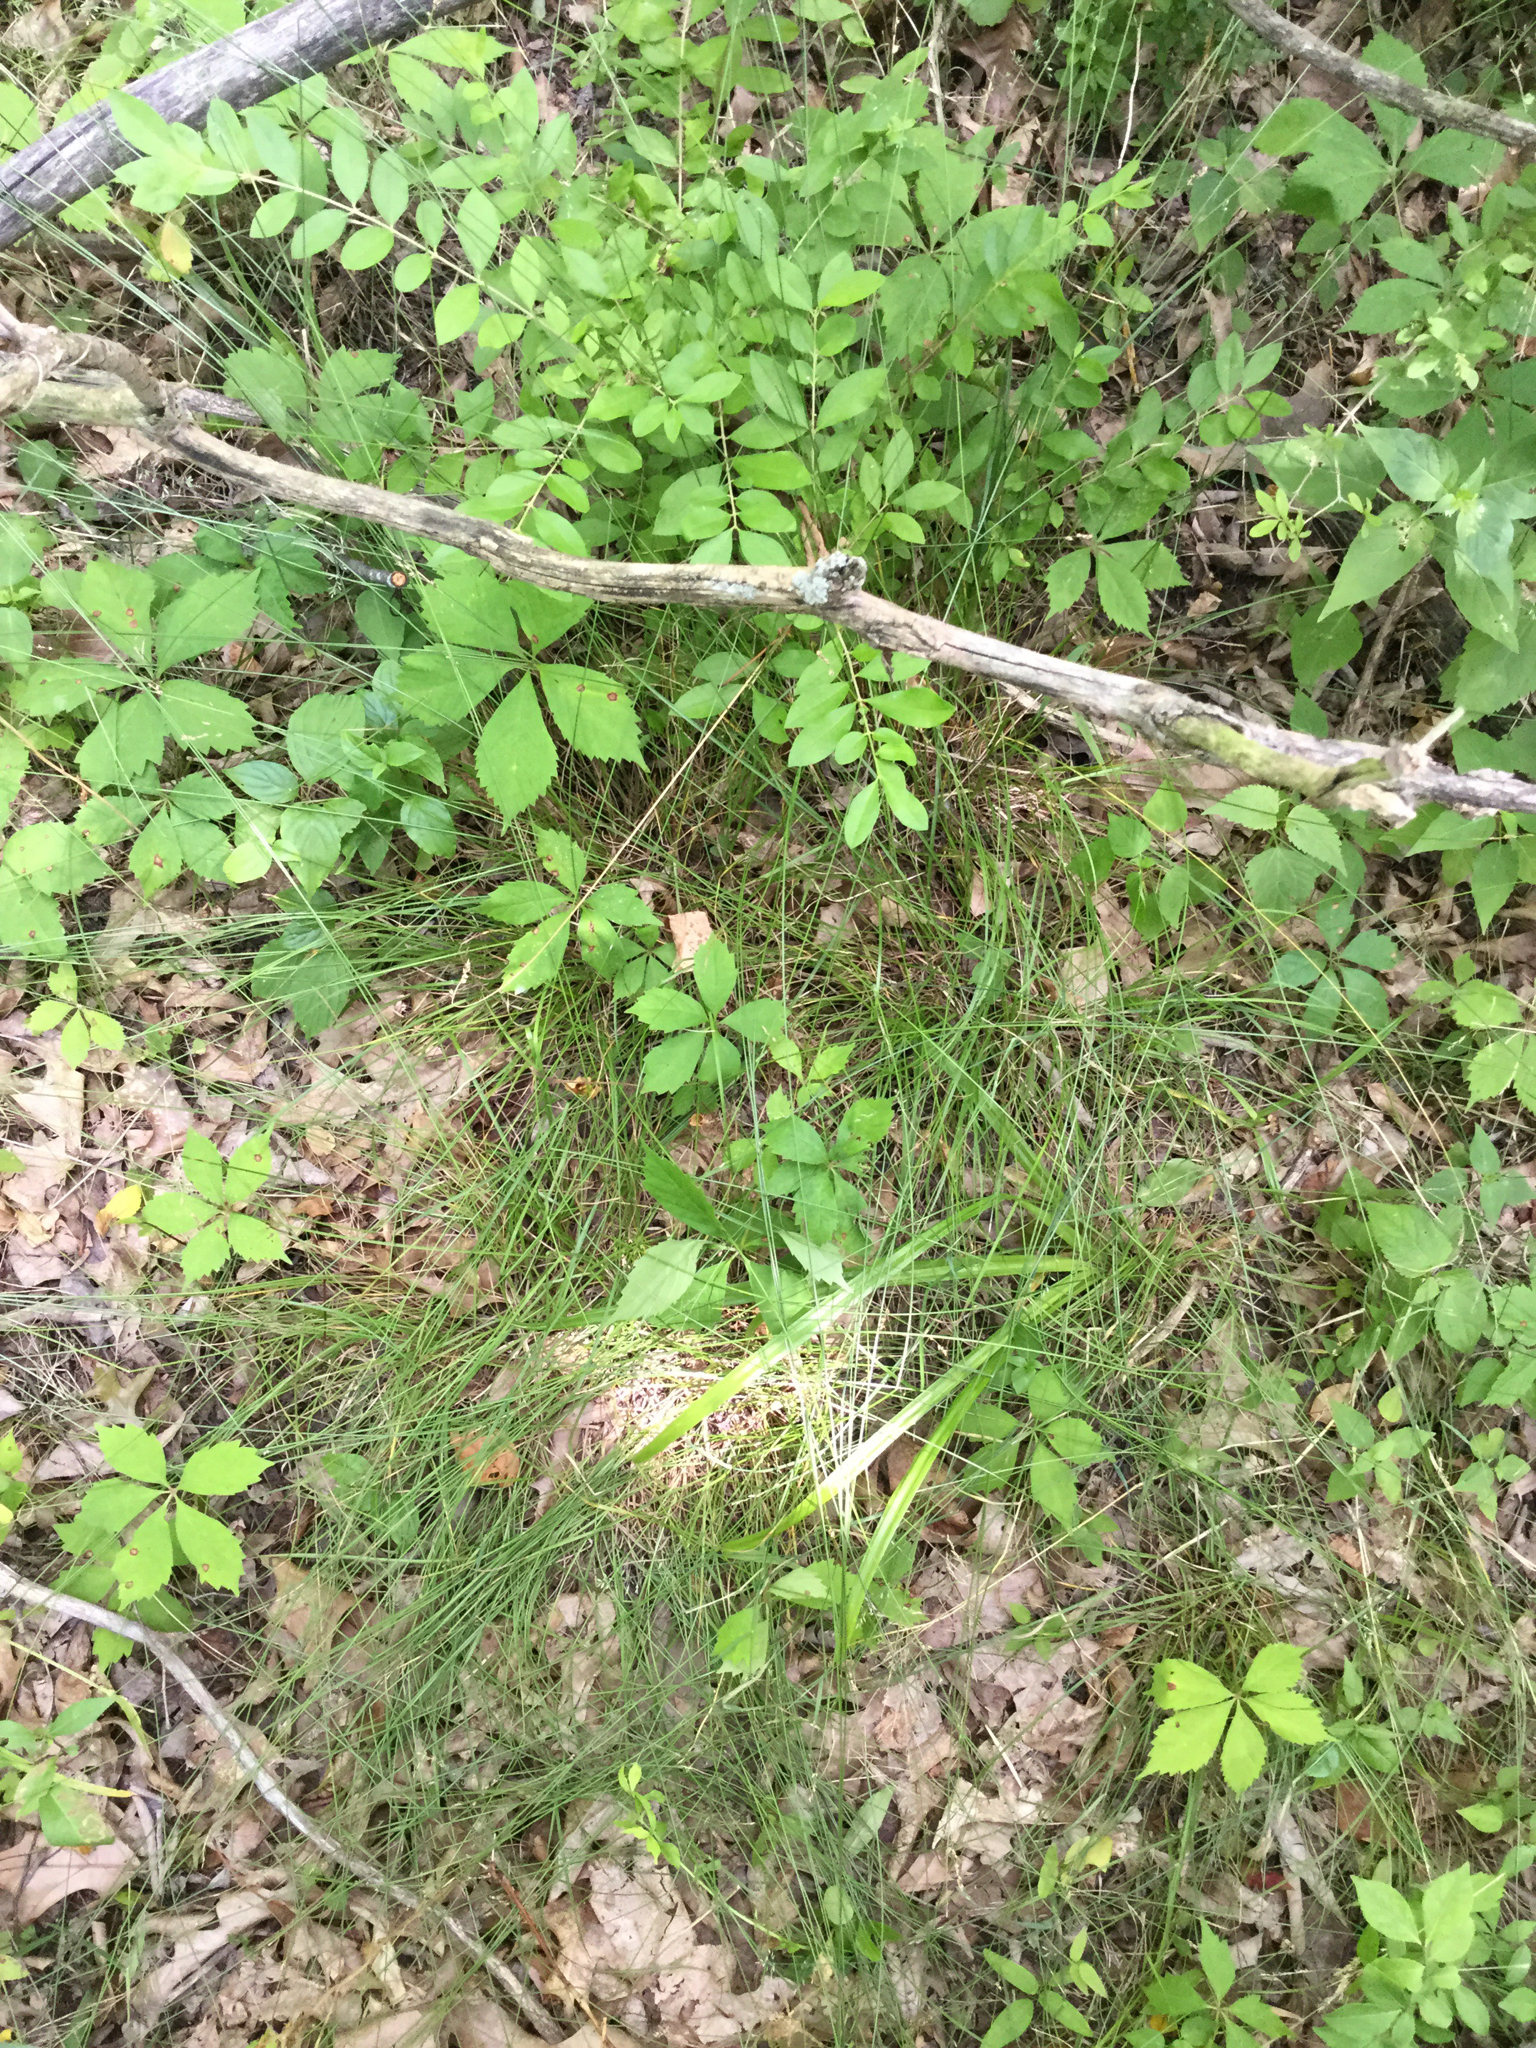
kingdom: Plantae
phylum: Tracheophyta
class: Liliopsida
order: Poales
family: Cyperaceae
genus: Carex
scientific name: Carex retroflexa
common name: Reflexed sedge
